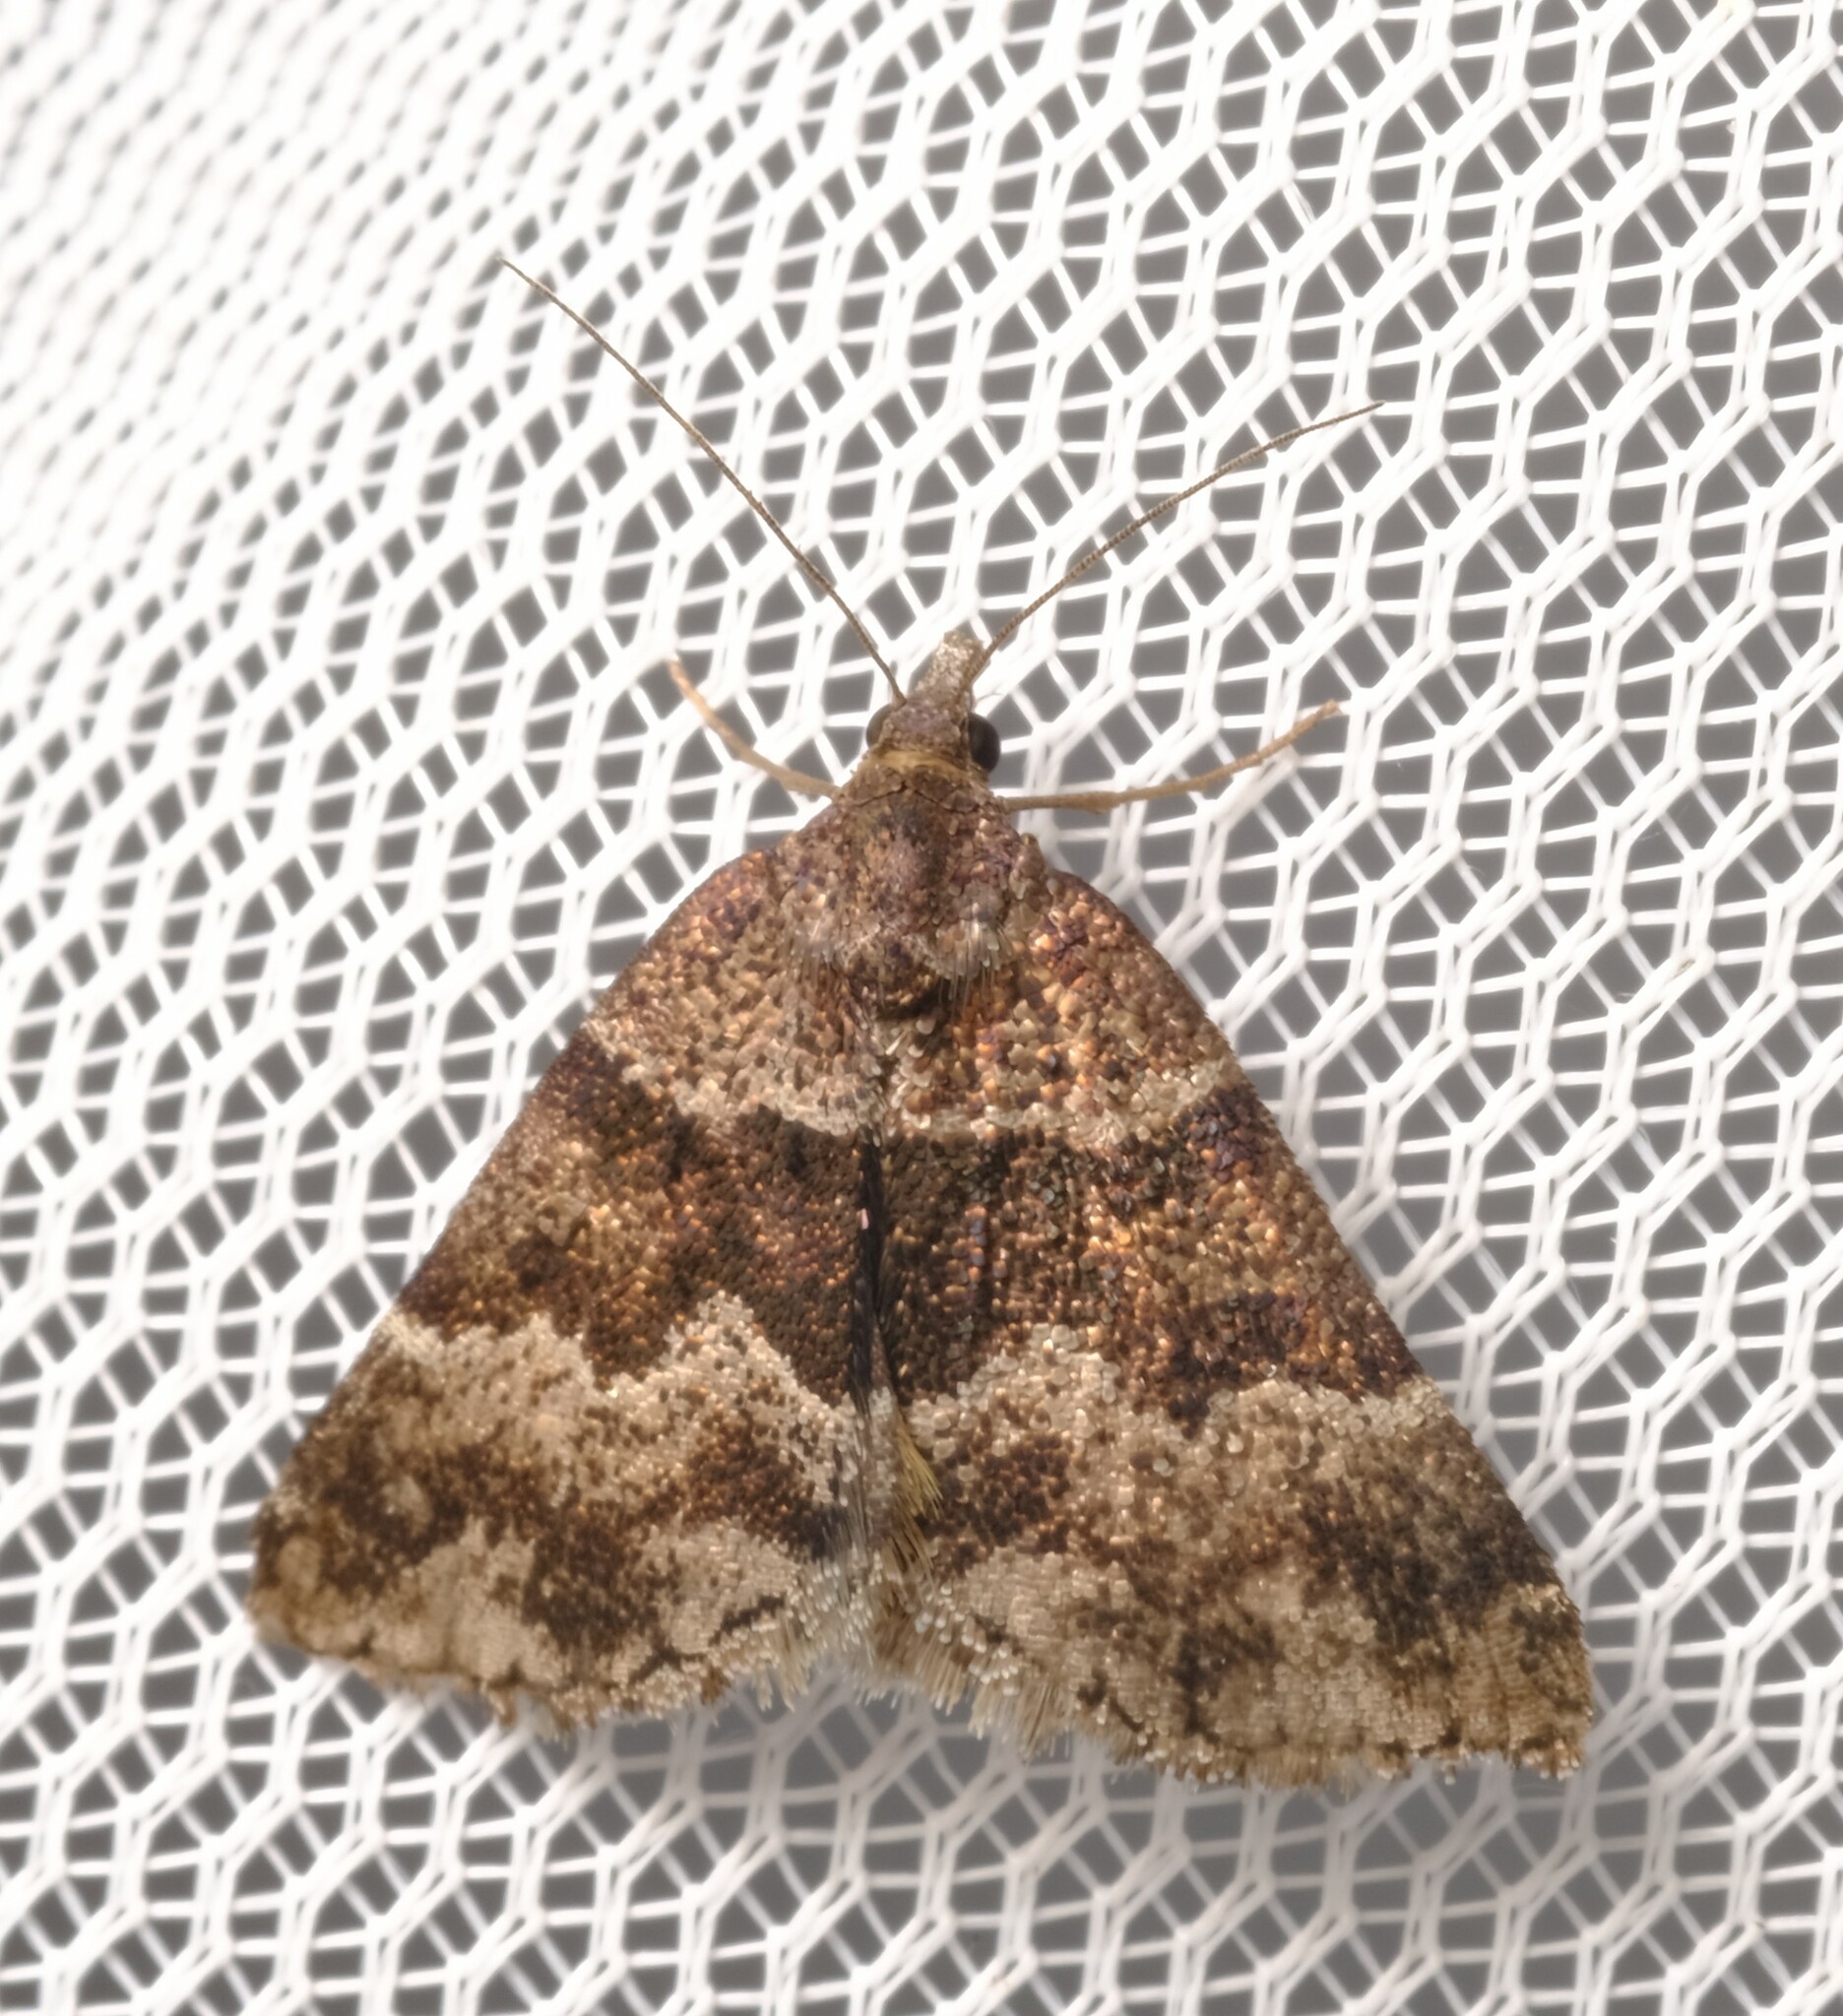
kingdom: Animalia
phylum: Arthropoda
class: Insecta
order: Lepidoptera
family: Geometridae
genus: Dichromodes
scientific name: Dichromodes ainaria
